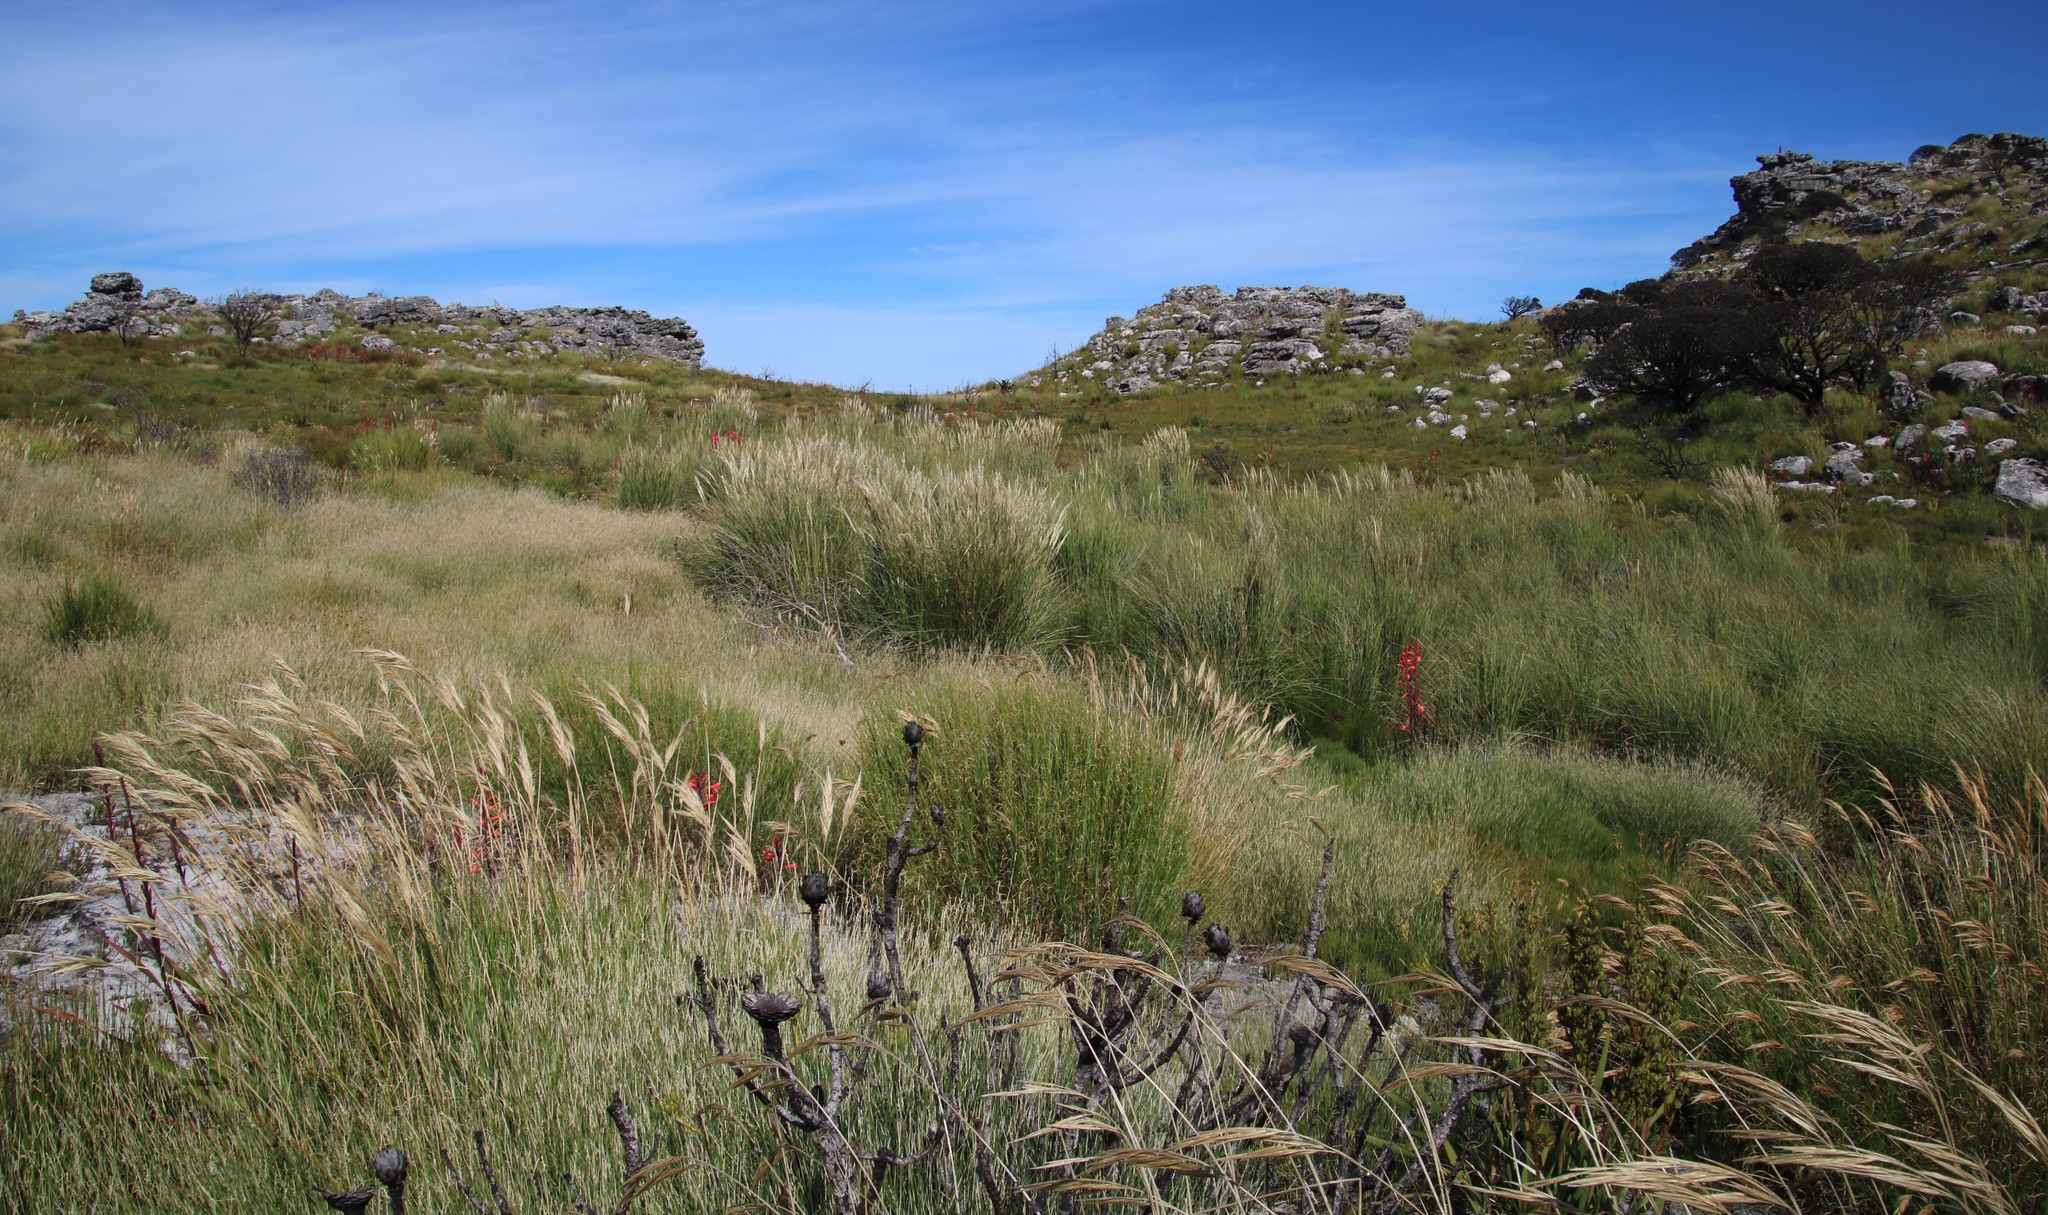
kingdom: Plantae
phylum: Tracheophyta
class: Liliopsida
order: Poales
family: Poaceae
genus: Ehrharta
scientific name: Ehrharta ramosa
